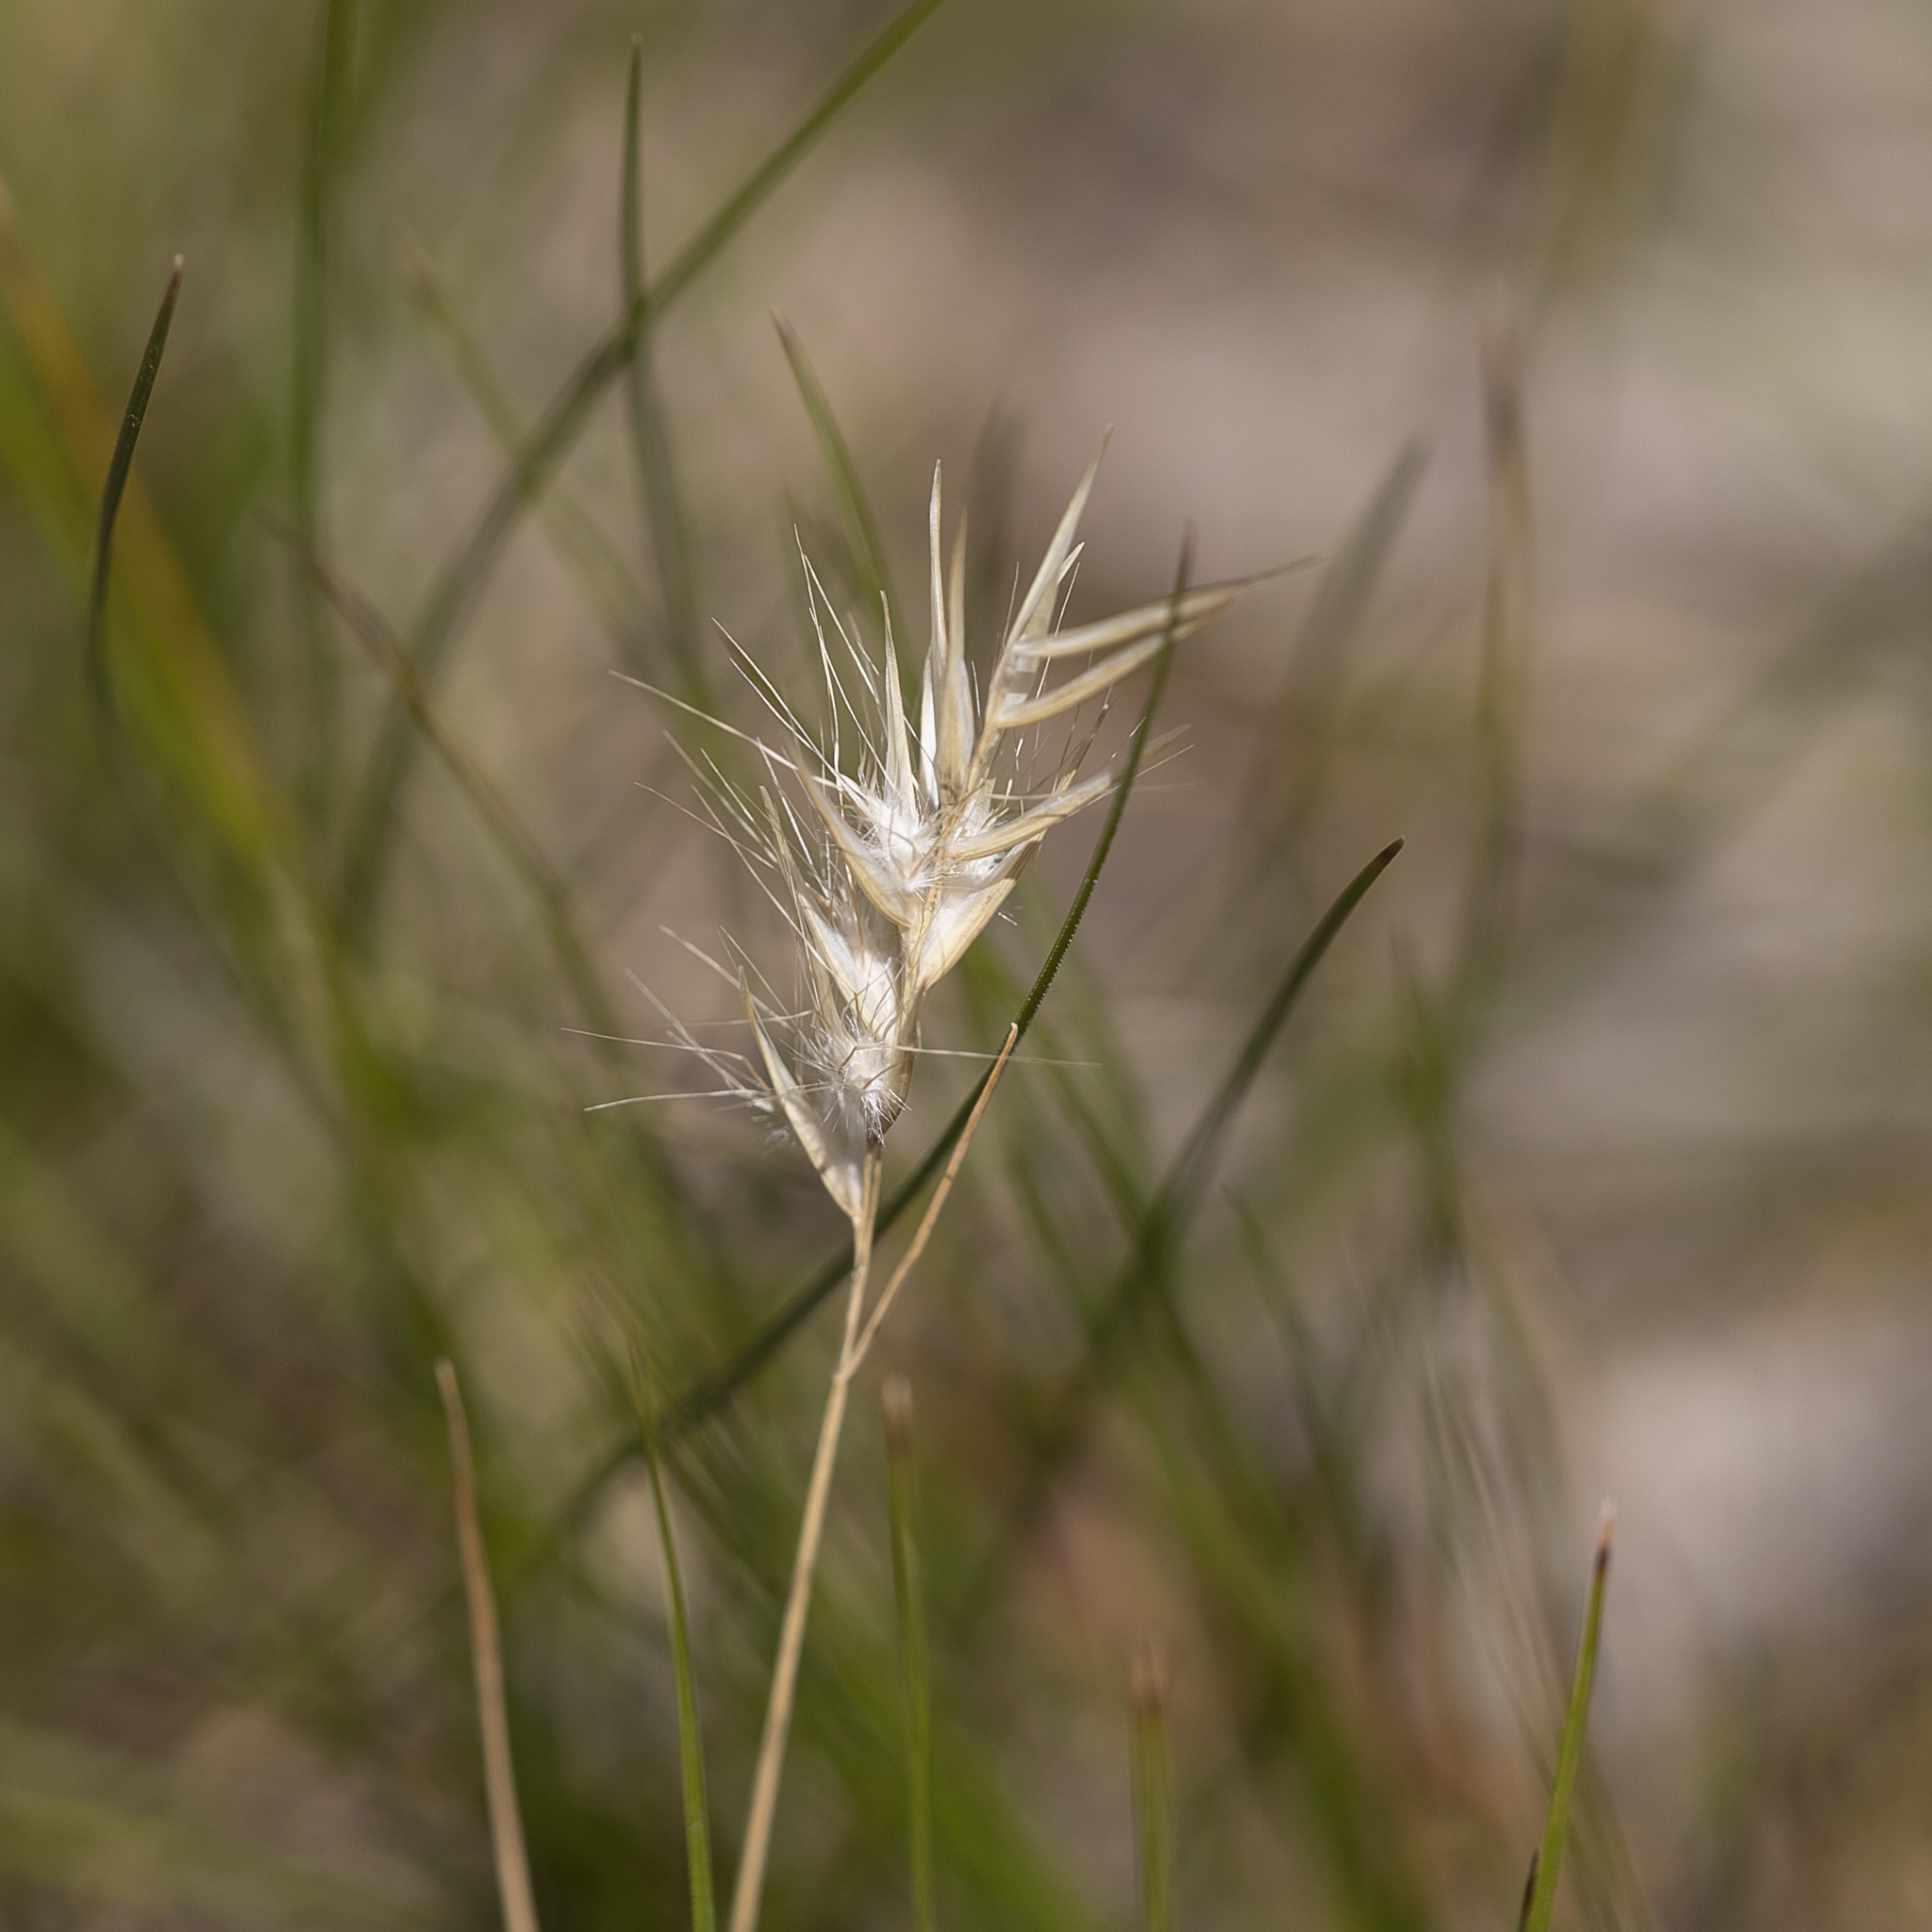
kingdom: Plantae
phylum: Tracheophyta
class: Liliopsida
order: Poales
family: Poaceae
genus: Rytidosperma
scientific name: Rytidosperma setaceum
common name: Small-flower wallaby grass
